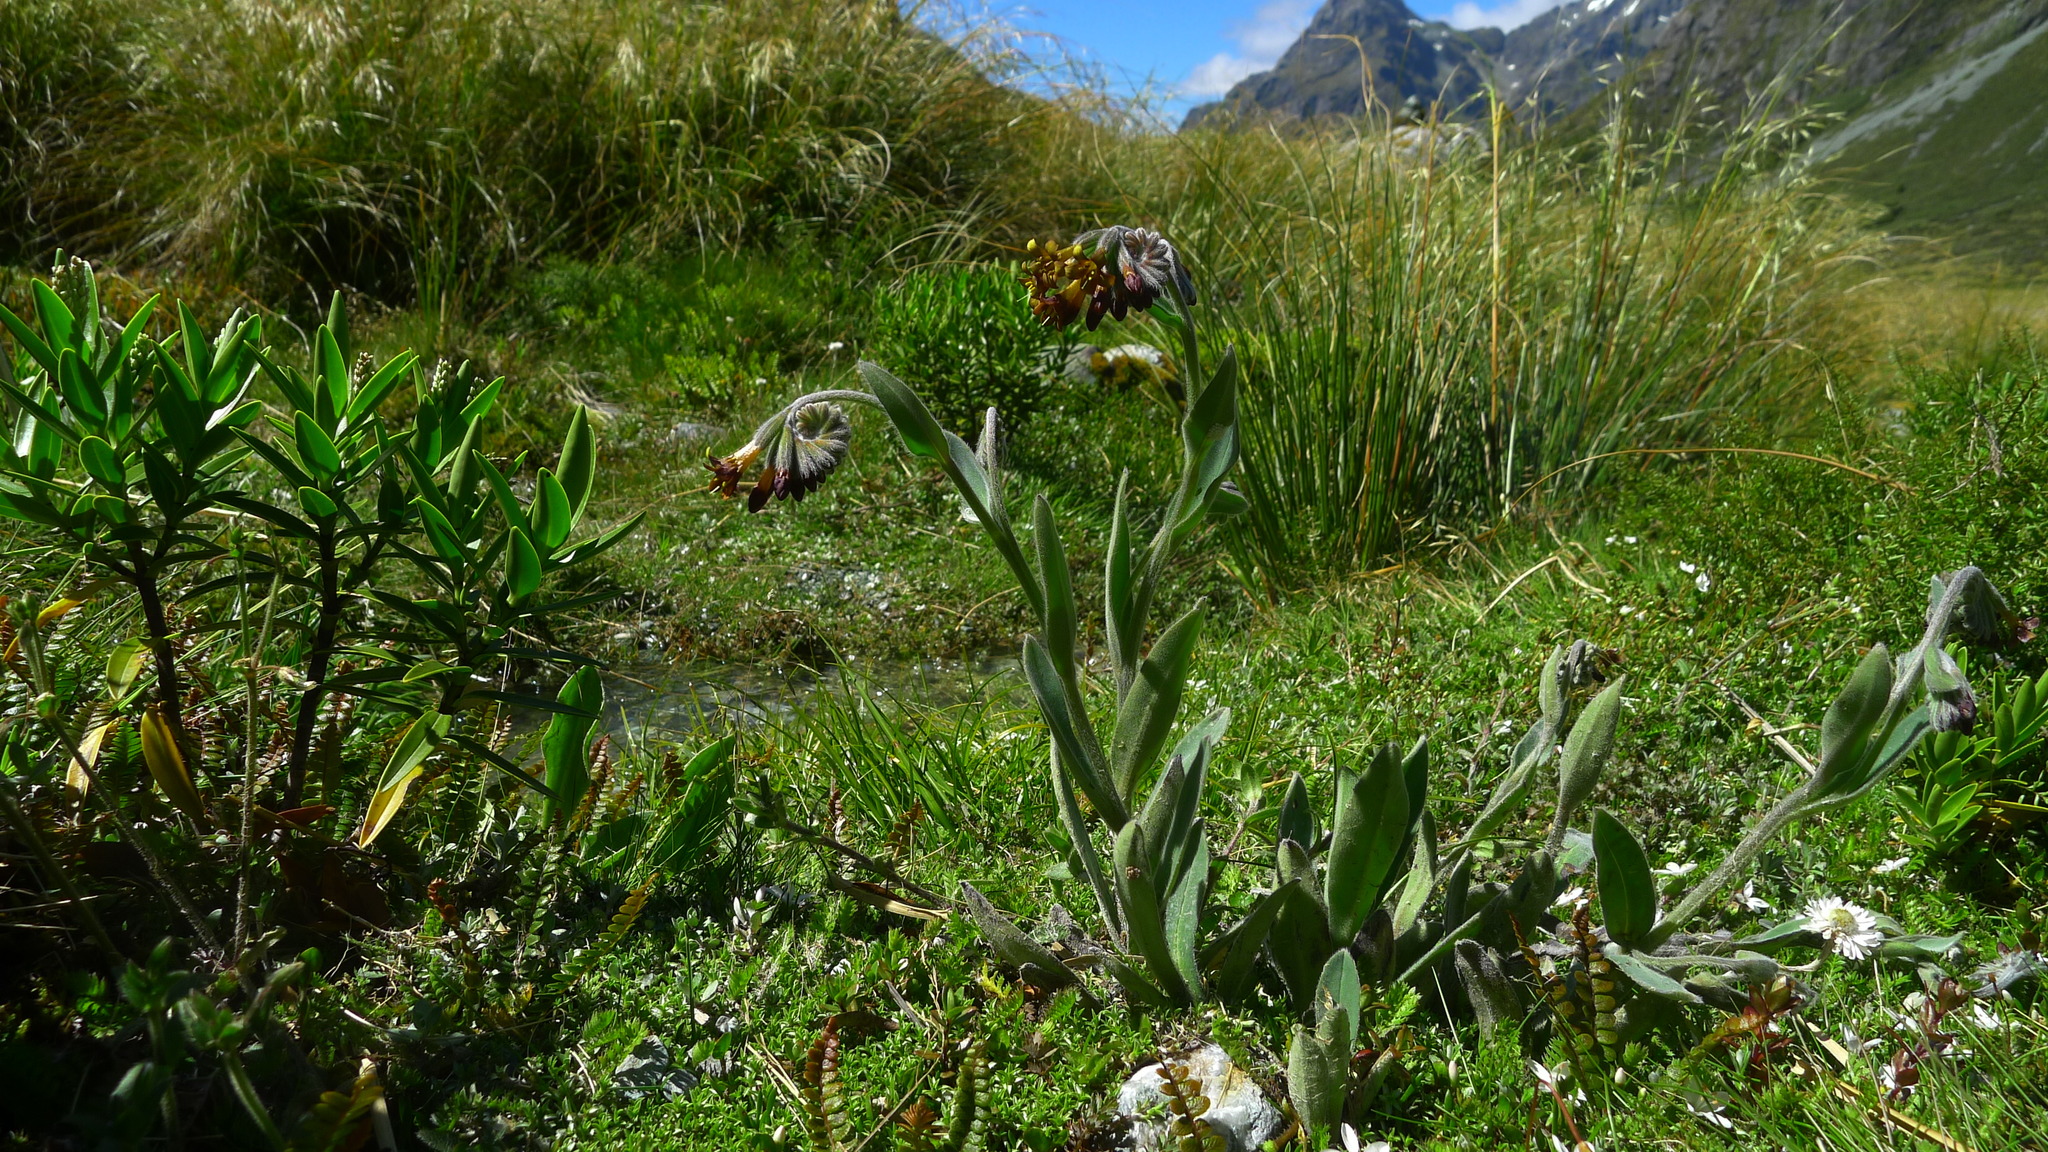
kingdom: Plantae
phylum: Tracheophyta
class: Magnoliopsida
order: Boraginales
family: Boraginaceae
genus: Myosotis
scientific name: Myosotis macrantha
